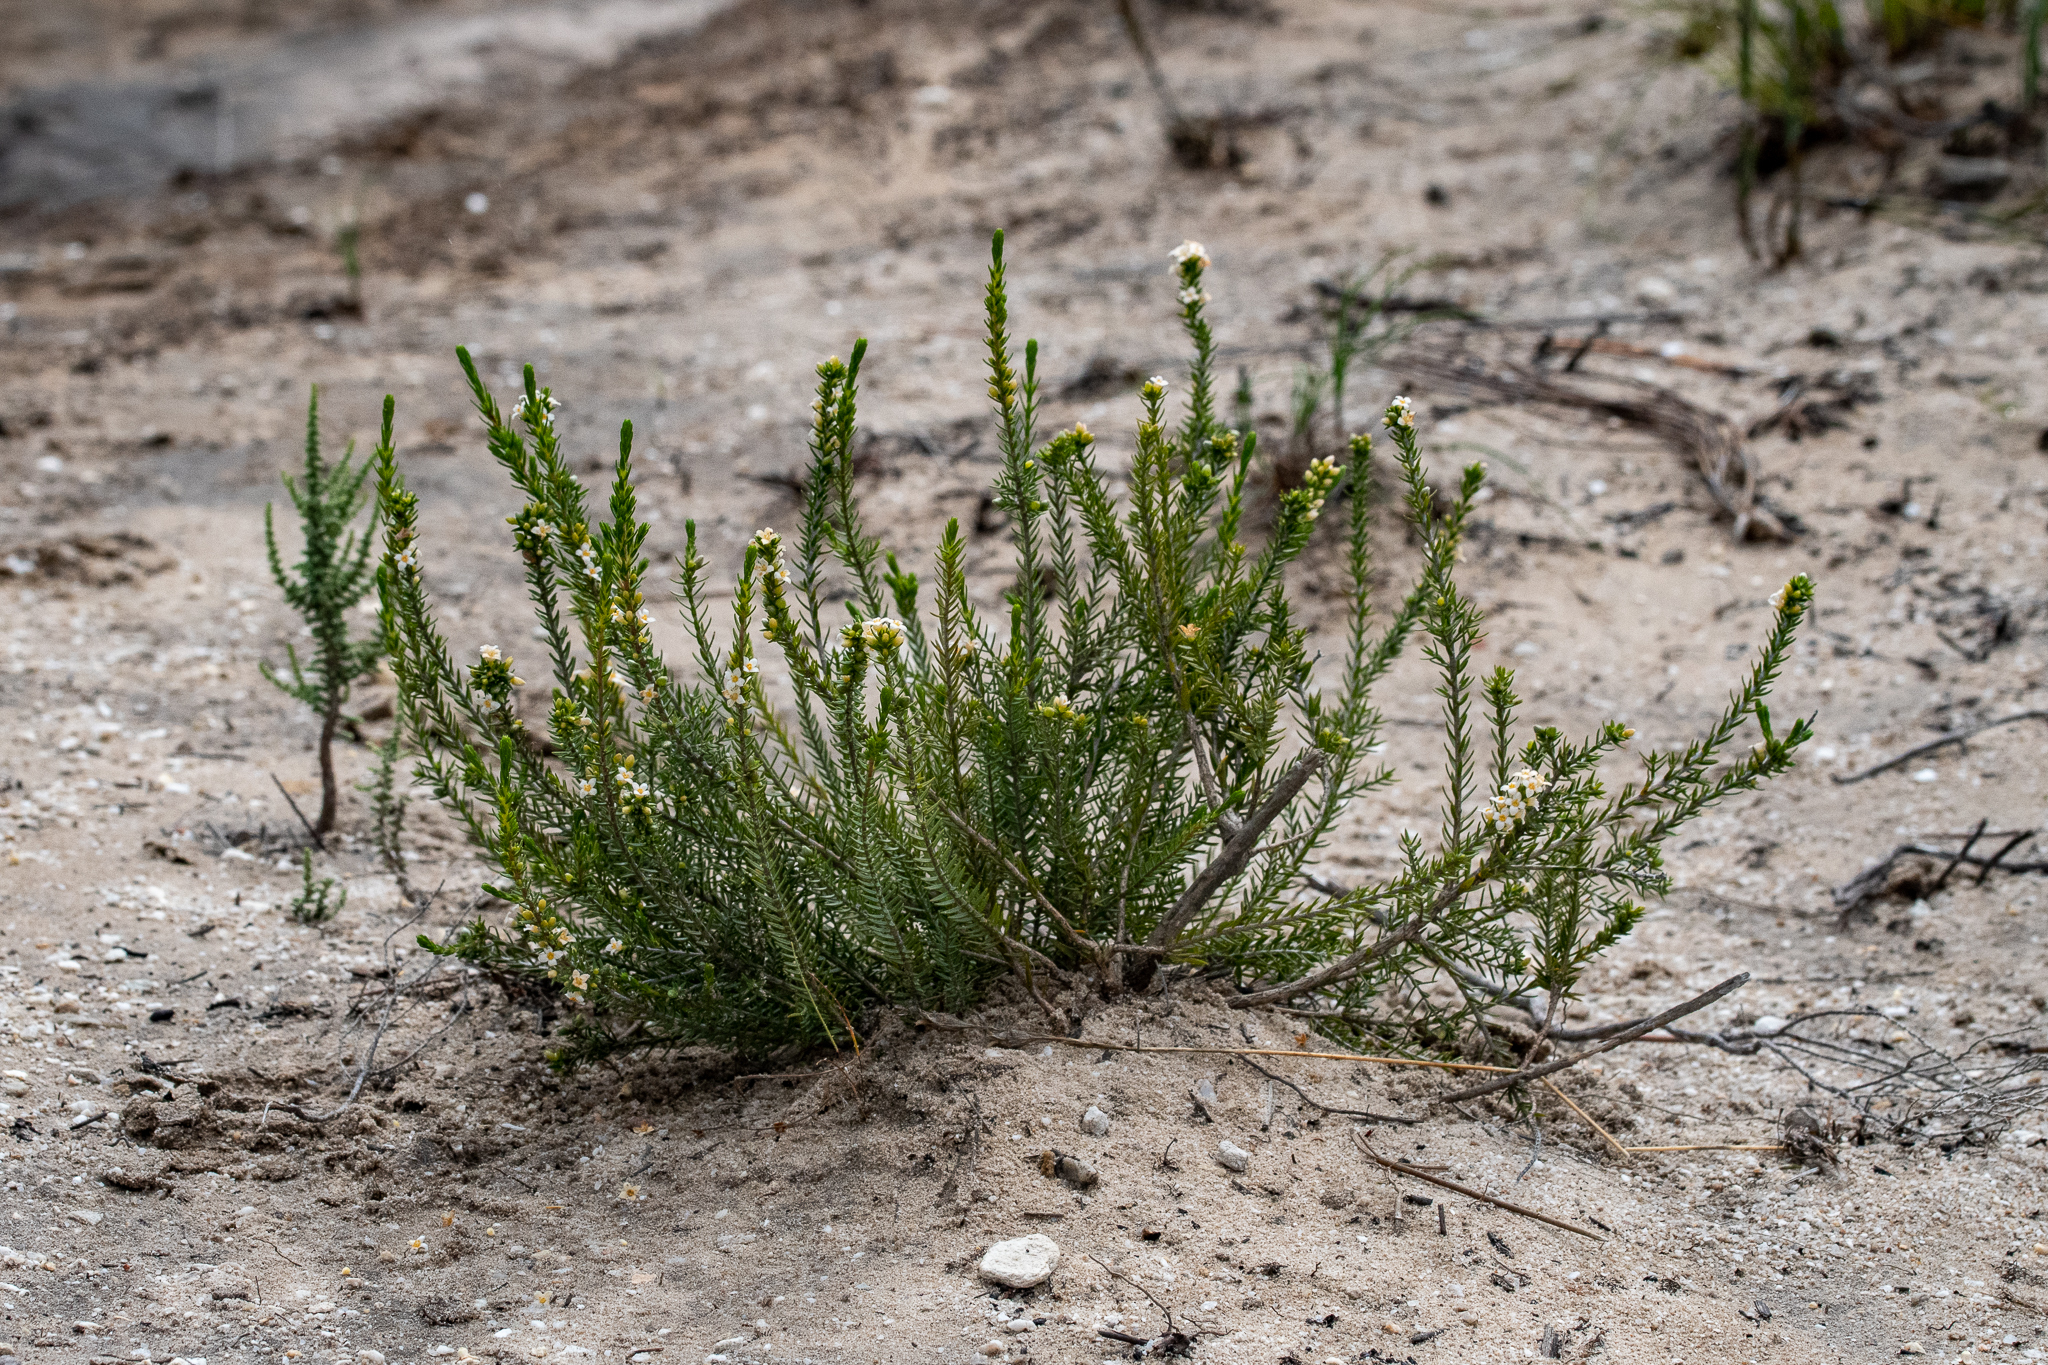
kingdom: Plantae
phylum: Tracheophyta
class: Magnoliopsida
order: Malvales
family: Thymelaeaceae
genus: Lachnaea
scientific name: Lachnaea filicaulis
